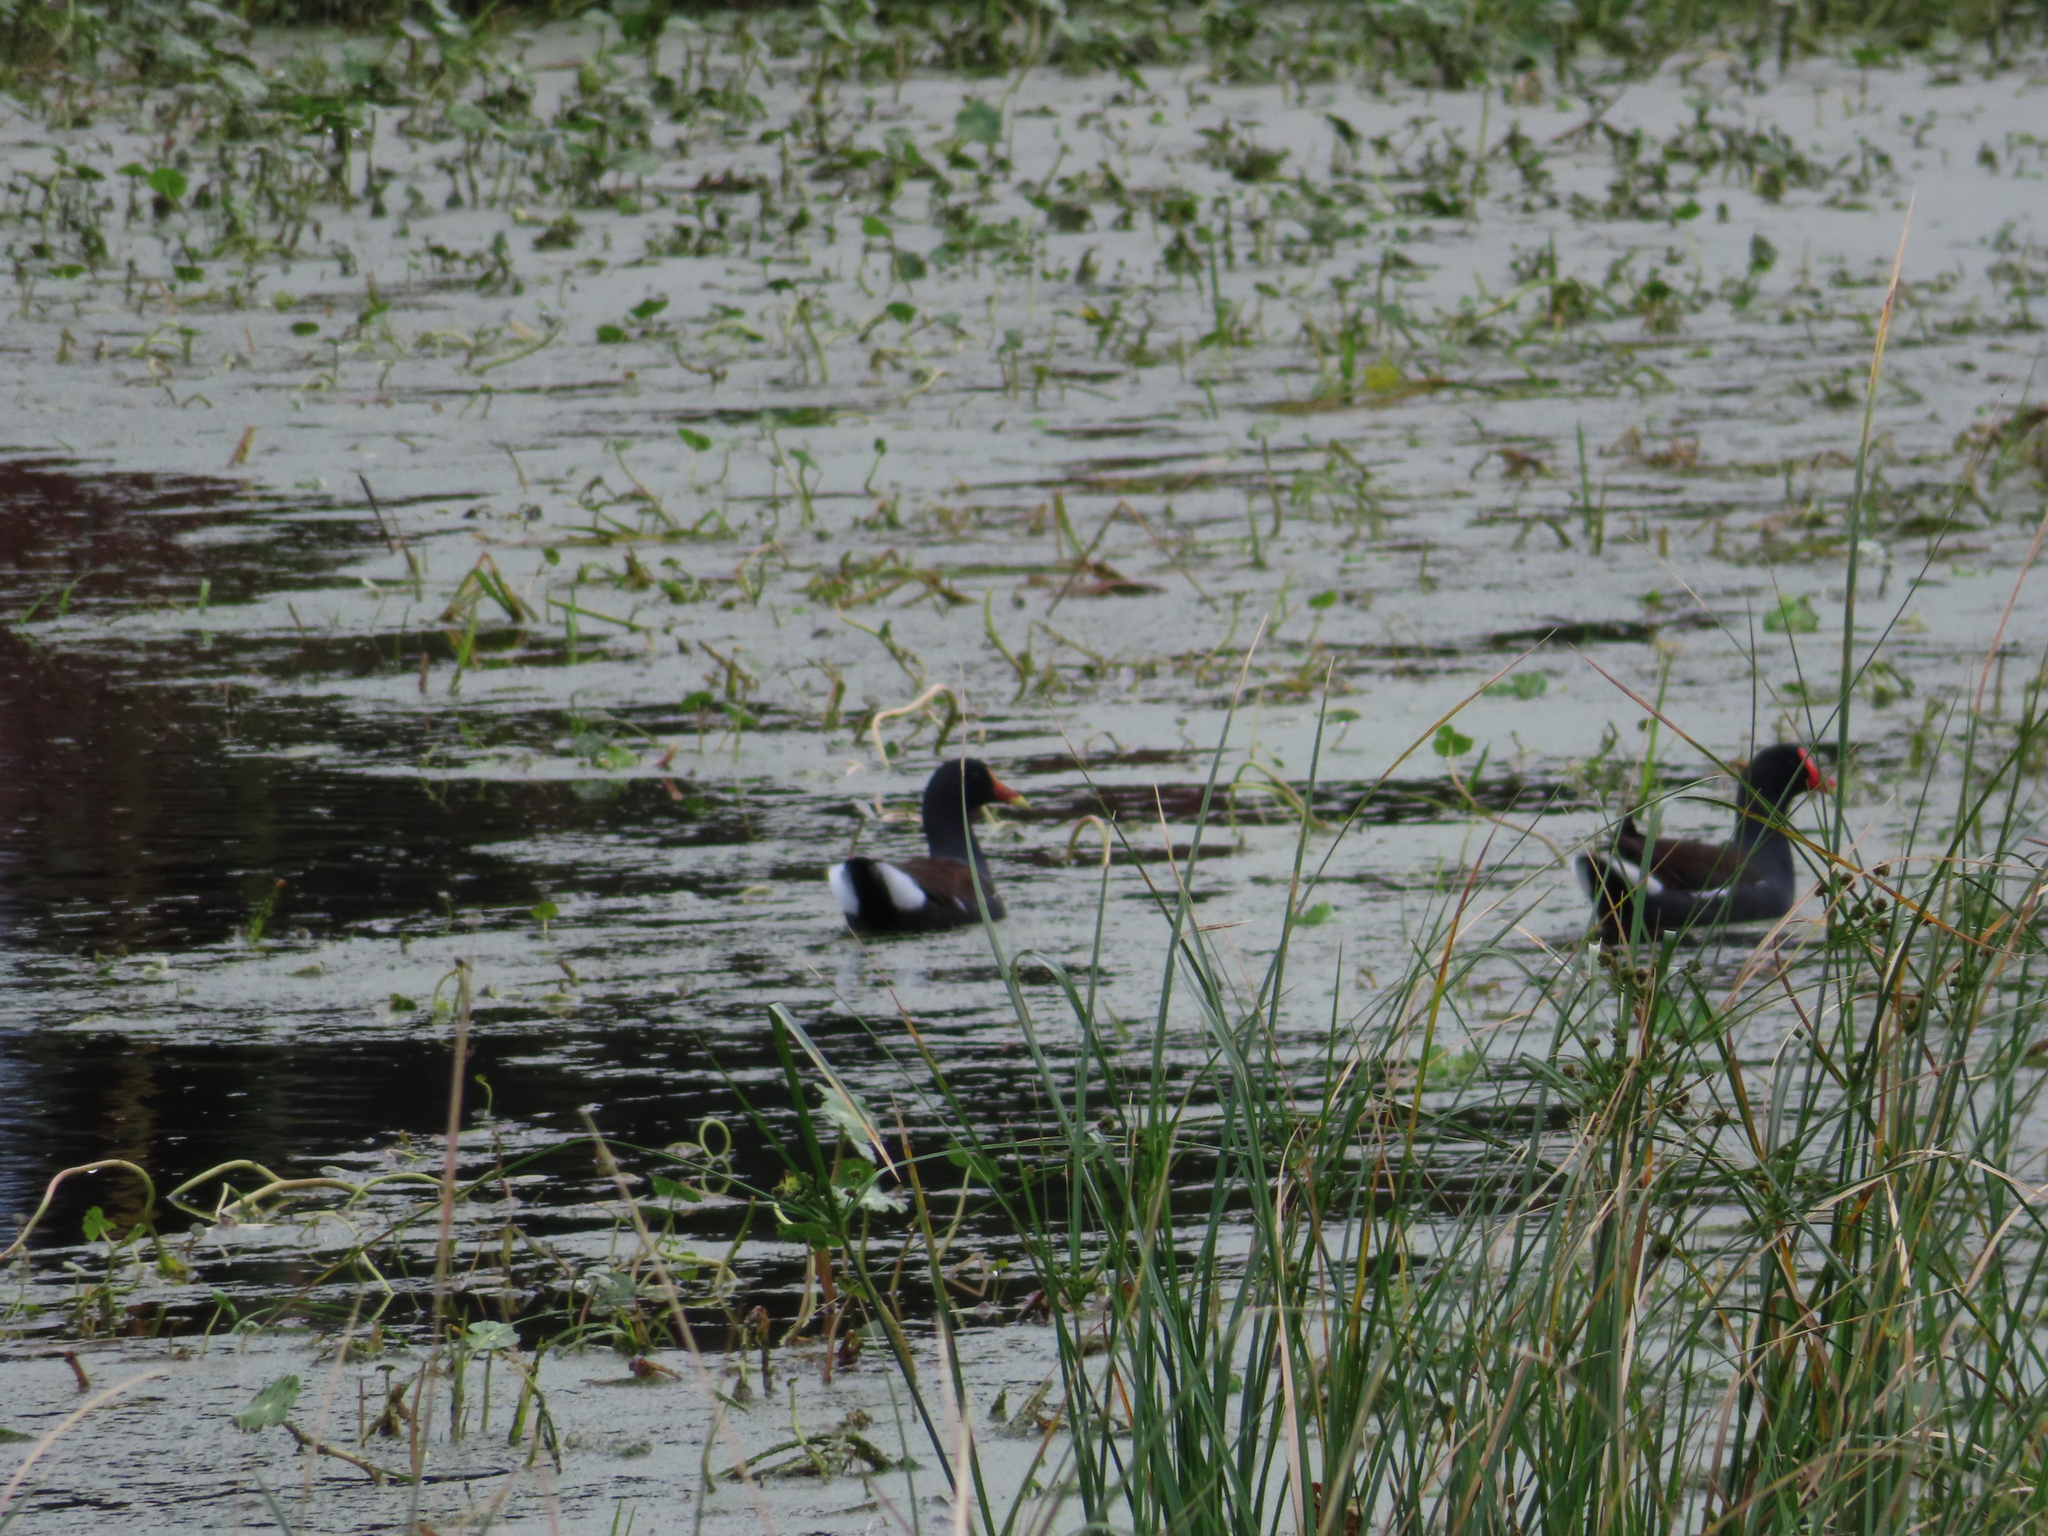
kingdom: Animalia
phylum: Chordata
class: Aves
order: Gruiformes
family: Rallidae
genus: Gallinula
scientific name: Gallinula chloropus
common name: Common moorhen
